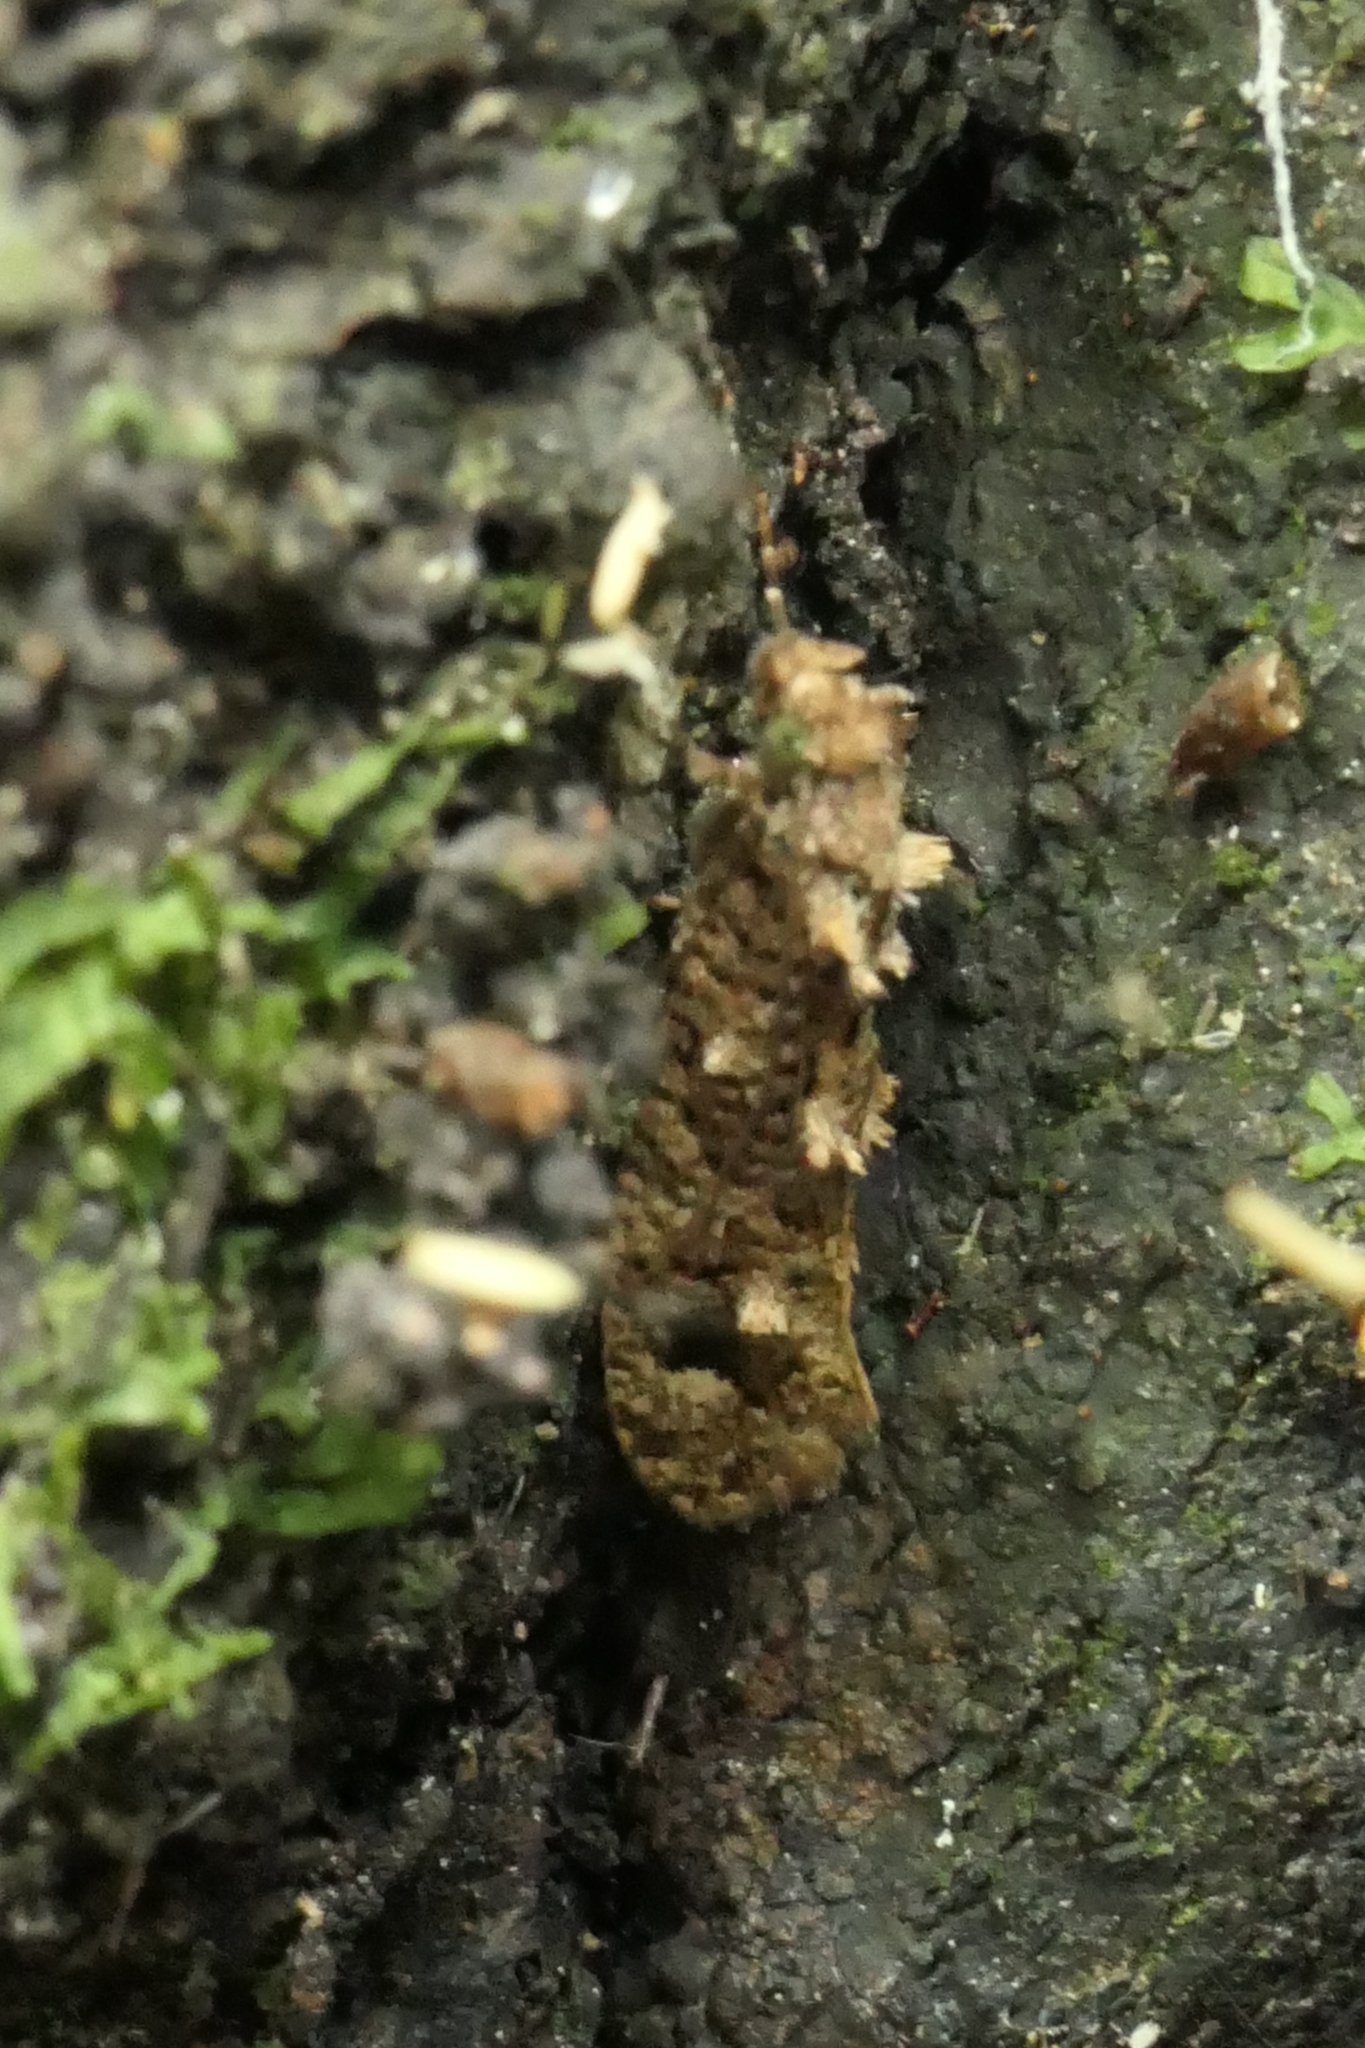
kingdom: Animalia
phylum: Arthropoda
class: Insecta
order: Lepidoptera
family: Tineidae
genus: Lysiphragma
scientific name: Lysiphragma epixyla
